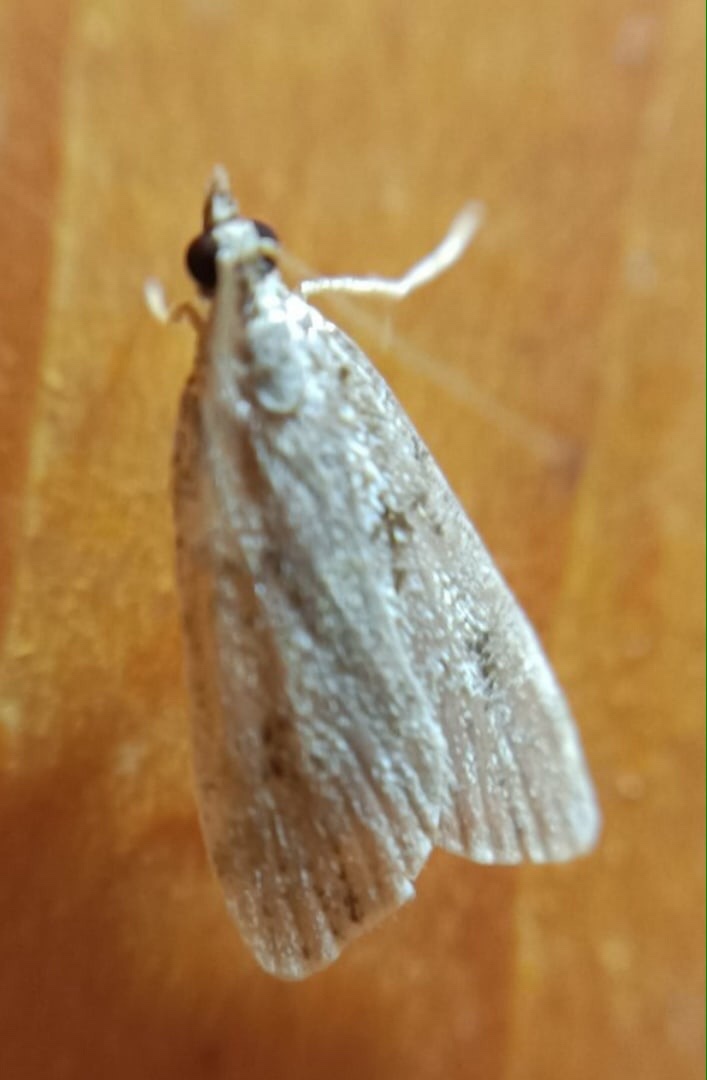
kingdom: Animalia
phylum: Arthropoda
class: Insecta
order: Lepidoptera
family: Crambidae
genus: Eudonia
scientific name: Eudonia truncicolella
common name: Ground-moss grey
